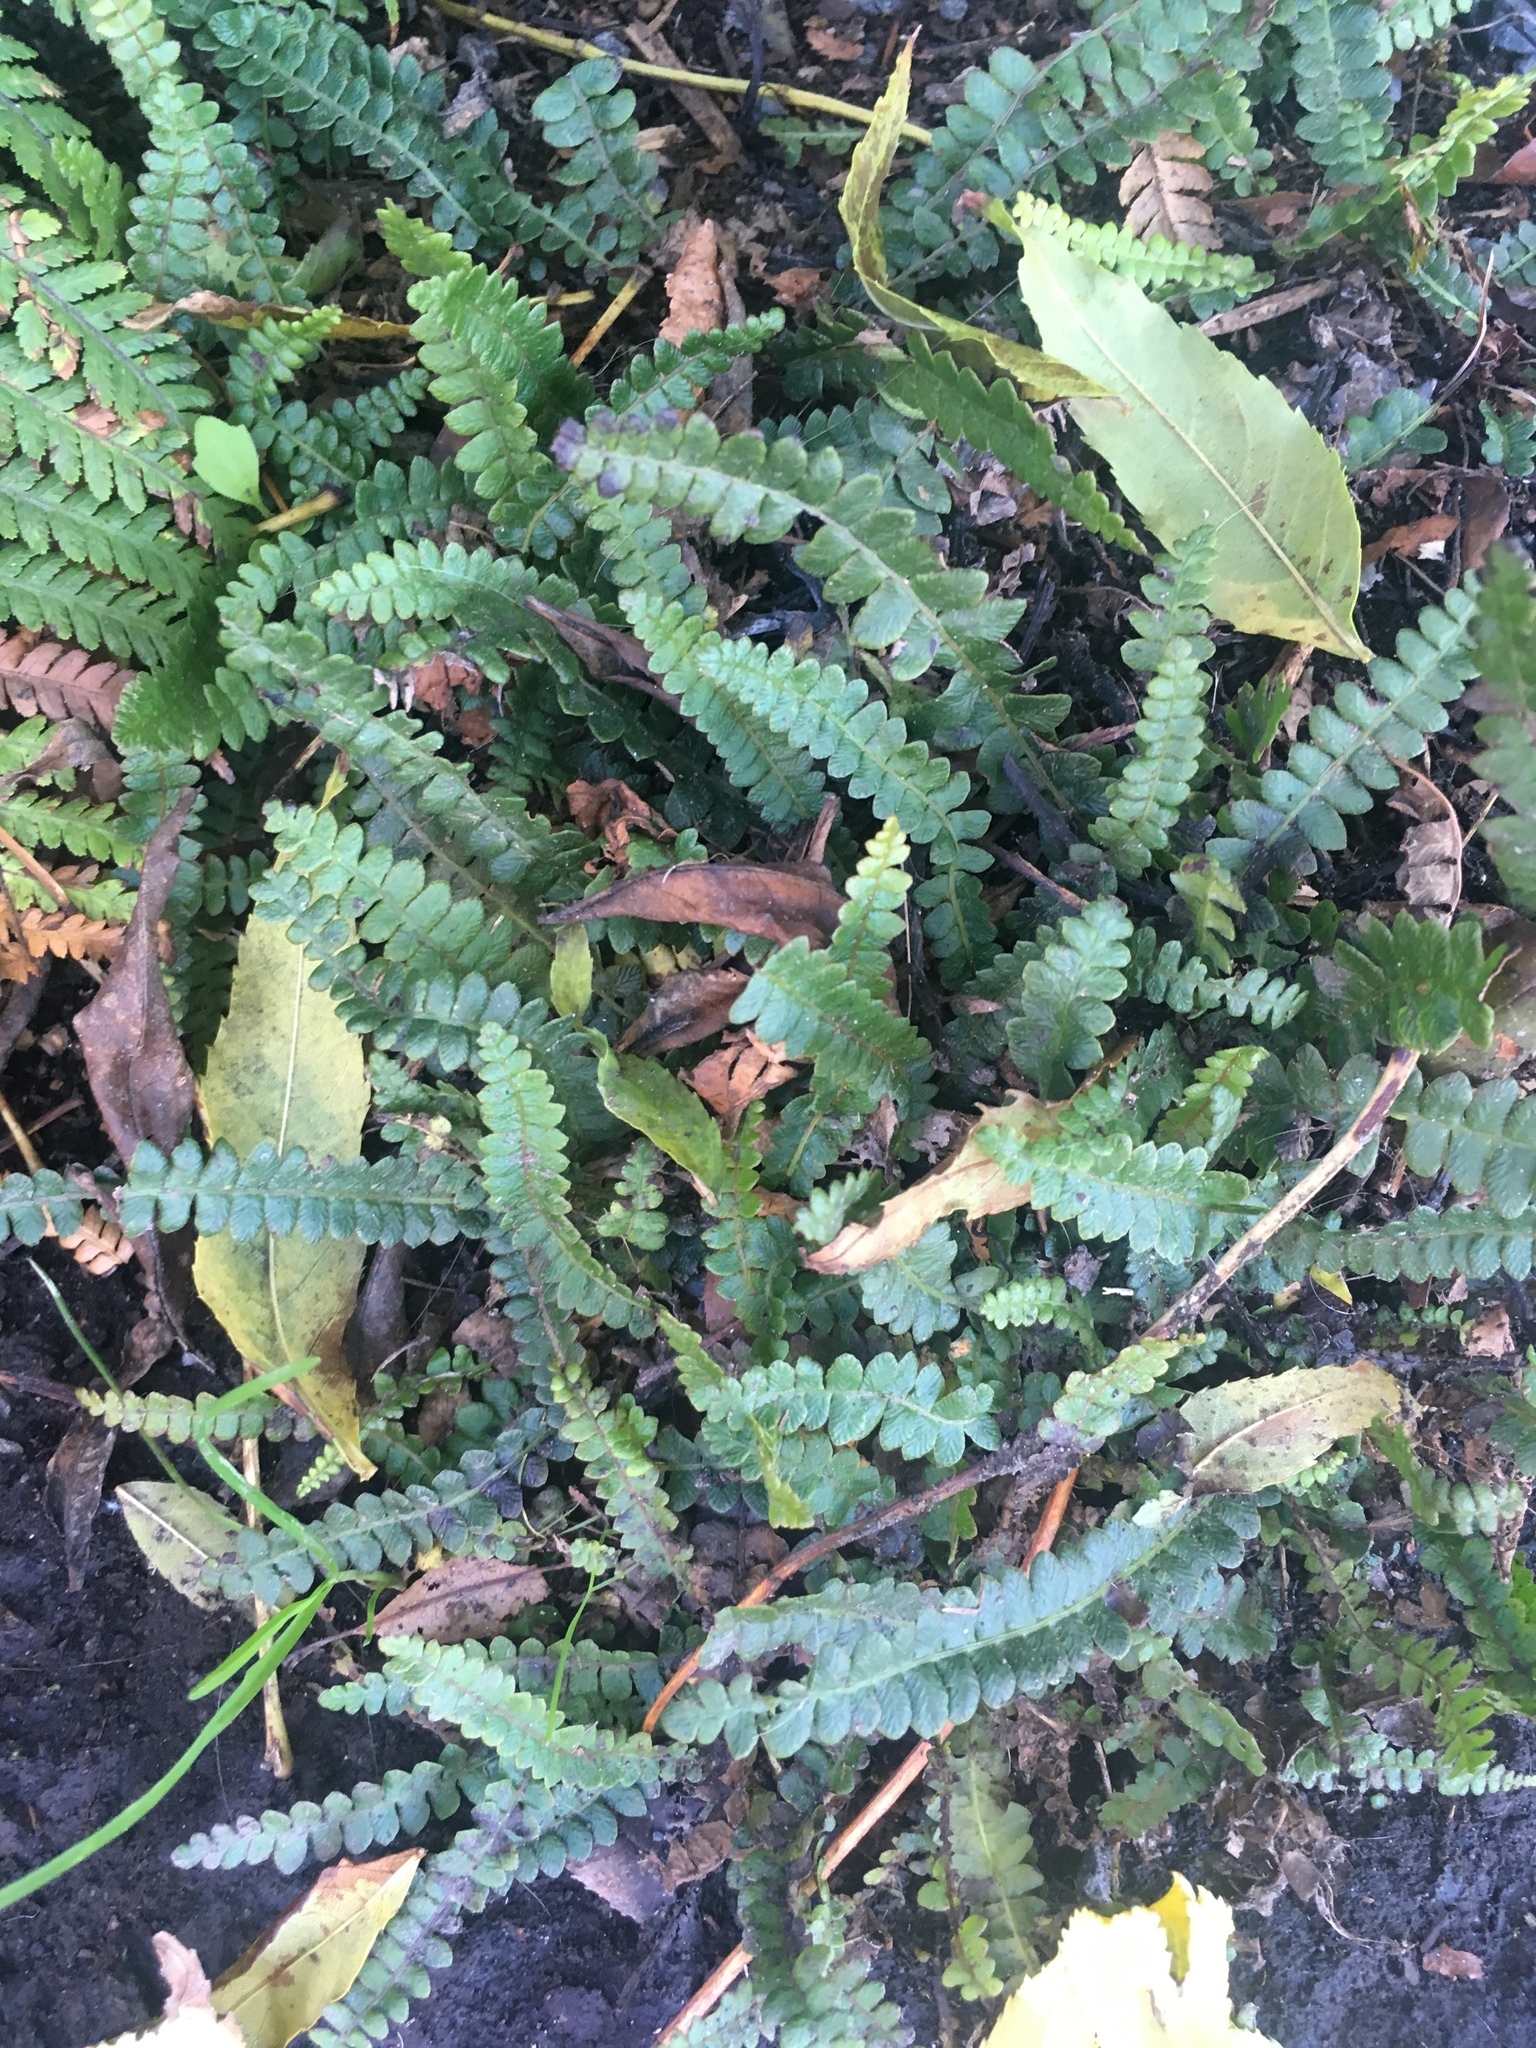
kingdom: Plantae
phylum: Tracheophyta
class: Polypodiopsida
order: Polypodiales
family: Blechnaceae
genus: Austroblechnum
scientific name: Austroblechnum penna-marina
